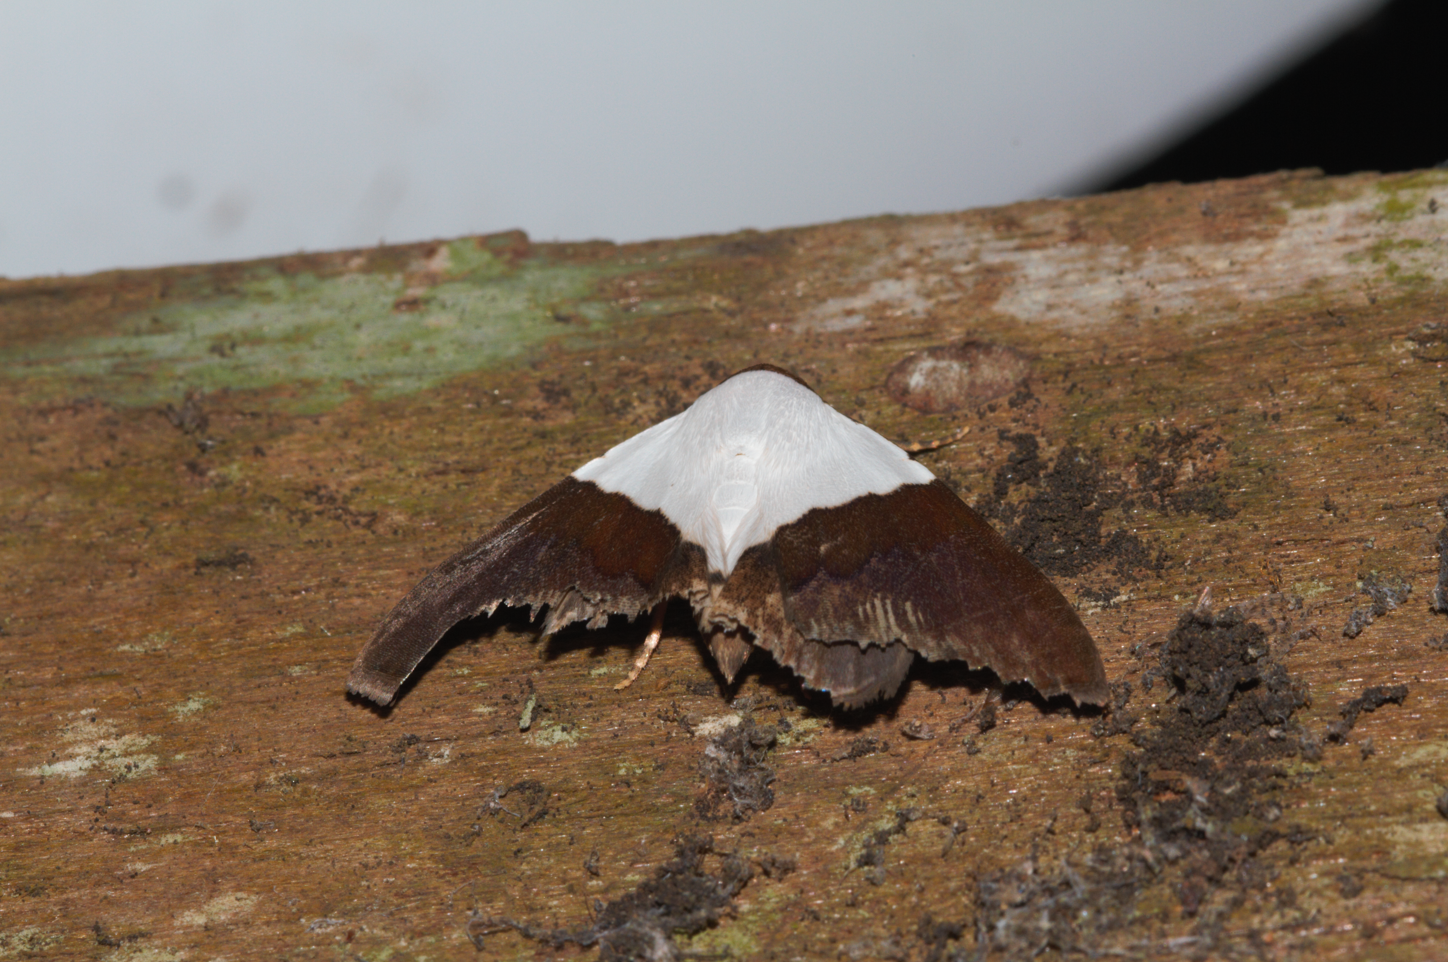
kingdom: Animalia
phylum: Arthropoda
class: Insecta
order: Lepidoptera
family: Erebidae
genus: Eulepidotis
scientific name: Eulepidotis vincentiata
